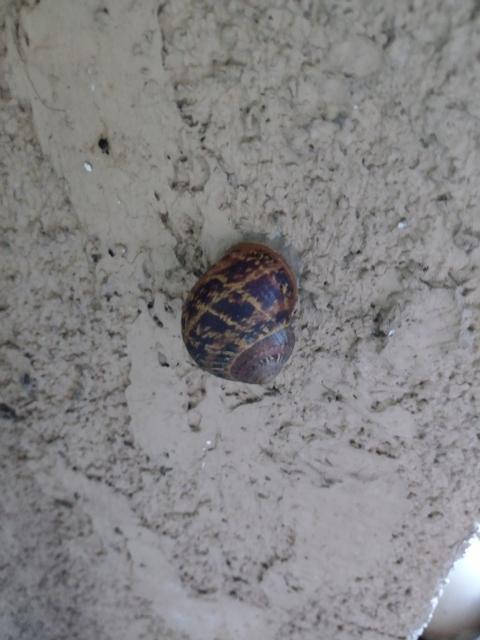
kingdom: Animalia
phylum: Mollusca
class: Gastropoda
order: Stylommatophora
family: Helicidae
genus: Cornu
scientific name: Cornu aspersum
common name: Brown garden snail
